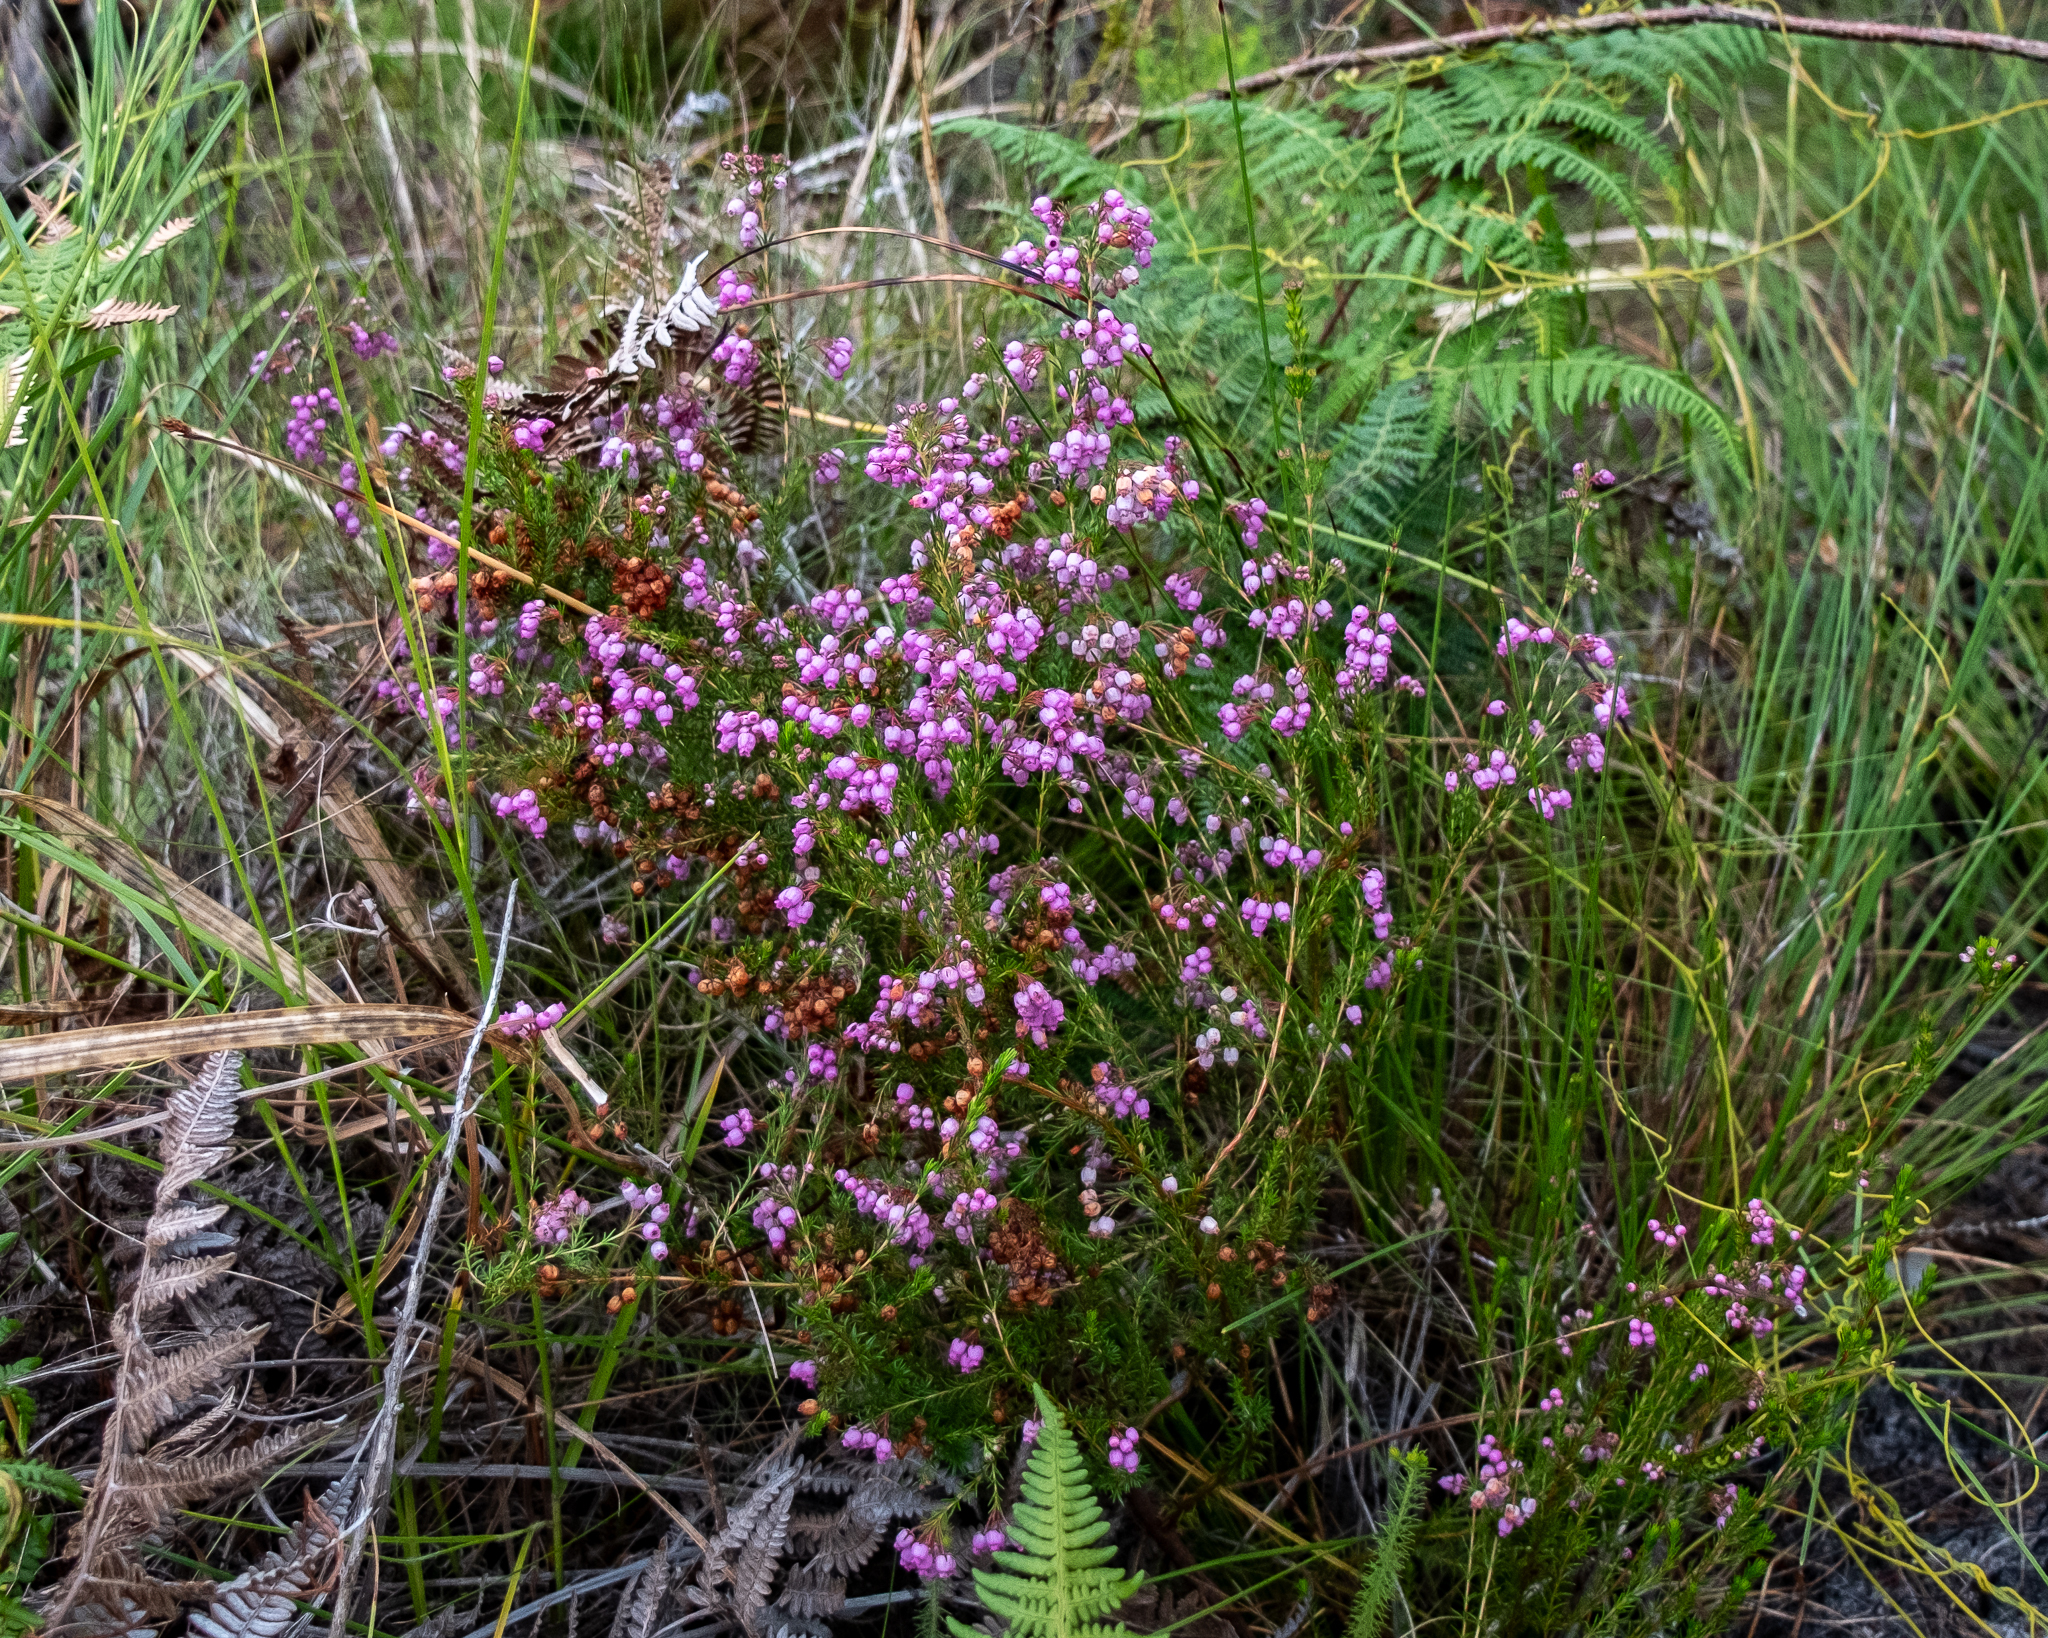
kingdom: Plantae
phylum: Tracheophyta
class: Magnoliopsida
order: Ericales
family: Ericaceae
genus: Erica
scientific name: Erica laeta
